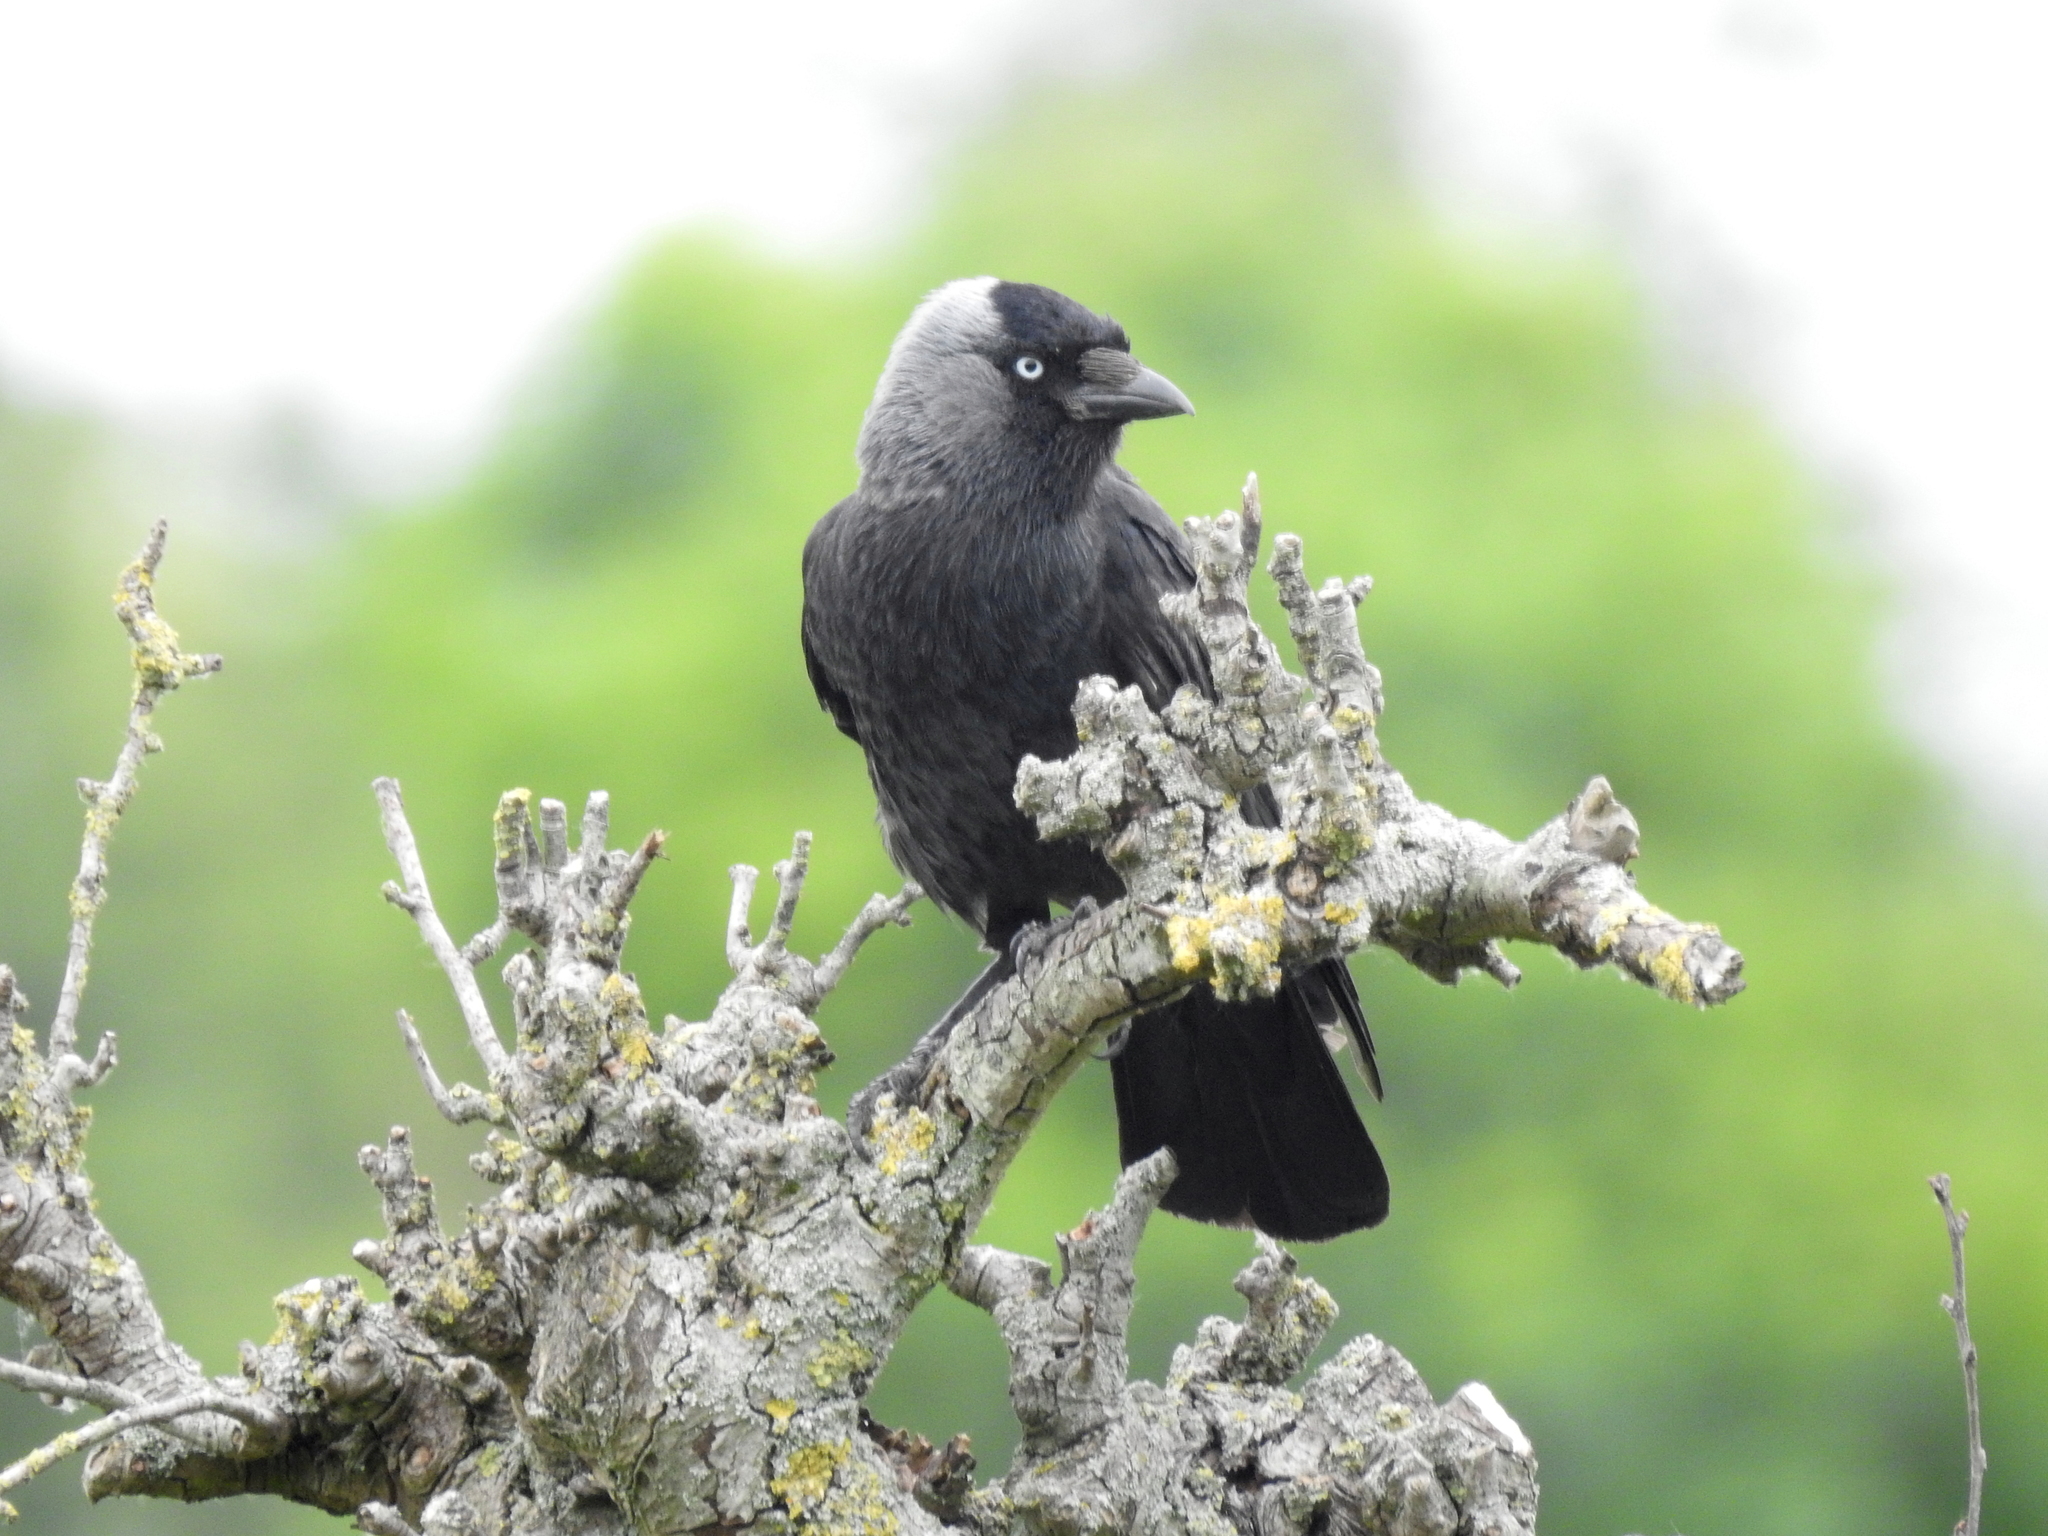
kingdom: Animalia
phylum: Chordata
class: Aves
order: Passeriformes
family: Corvidae
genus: Coloeus
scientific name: Coloeus monedula
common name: Western jackdaw
